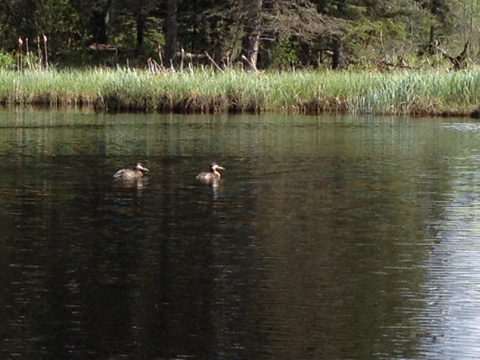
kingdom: Animalia
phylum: Chordata
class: Aves
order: Podicipediformes
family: Podicipedidae
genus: Podiceps
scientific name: Podiceps grisegena
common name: Red-necked grebe
